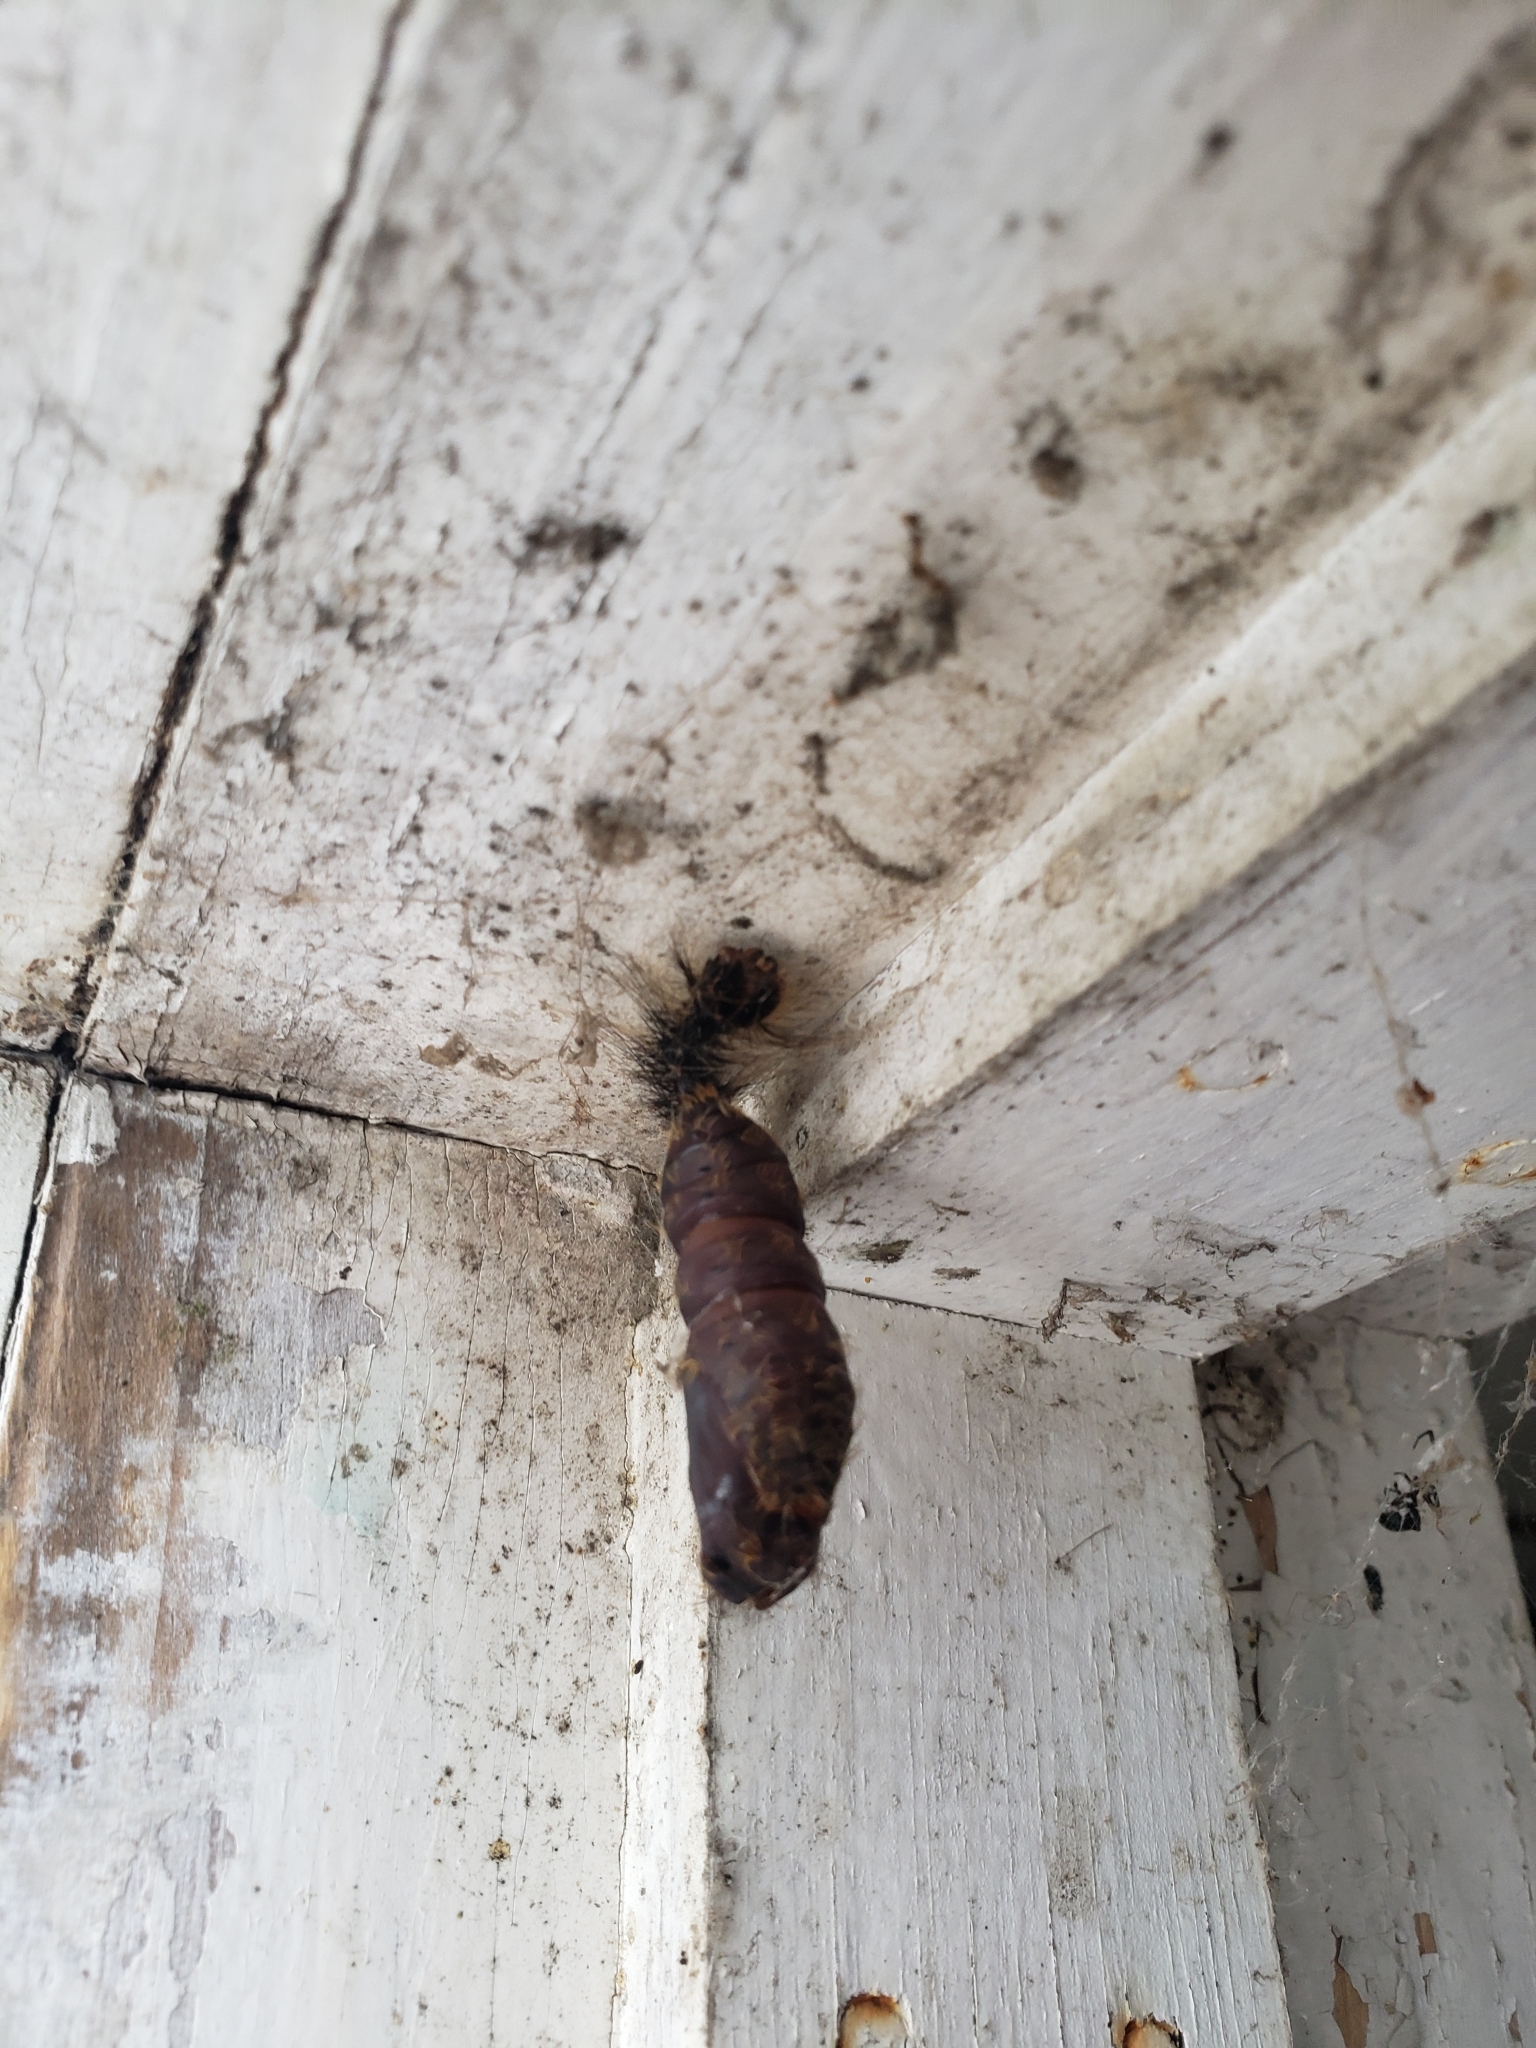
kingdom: Animalia
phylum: Arthropoda
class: Insecta
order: Lepidoptera
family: Erebidae
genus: Lymantria
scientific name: Lymantria dispar
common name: Gypsy moth
